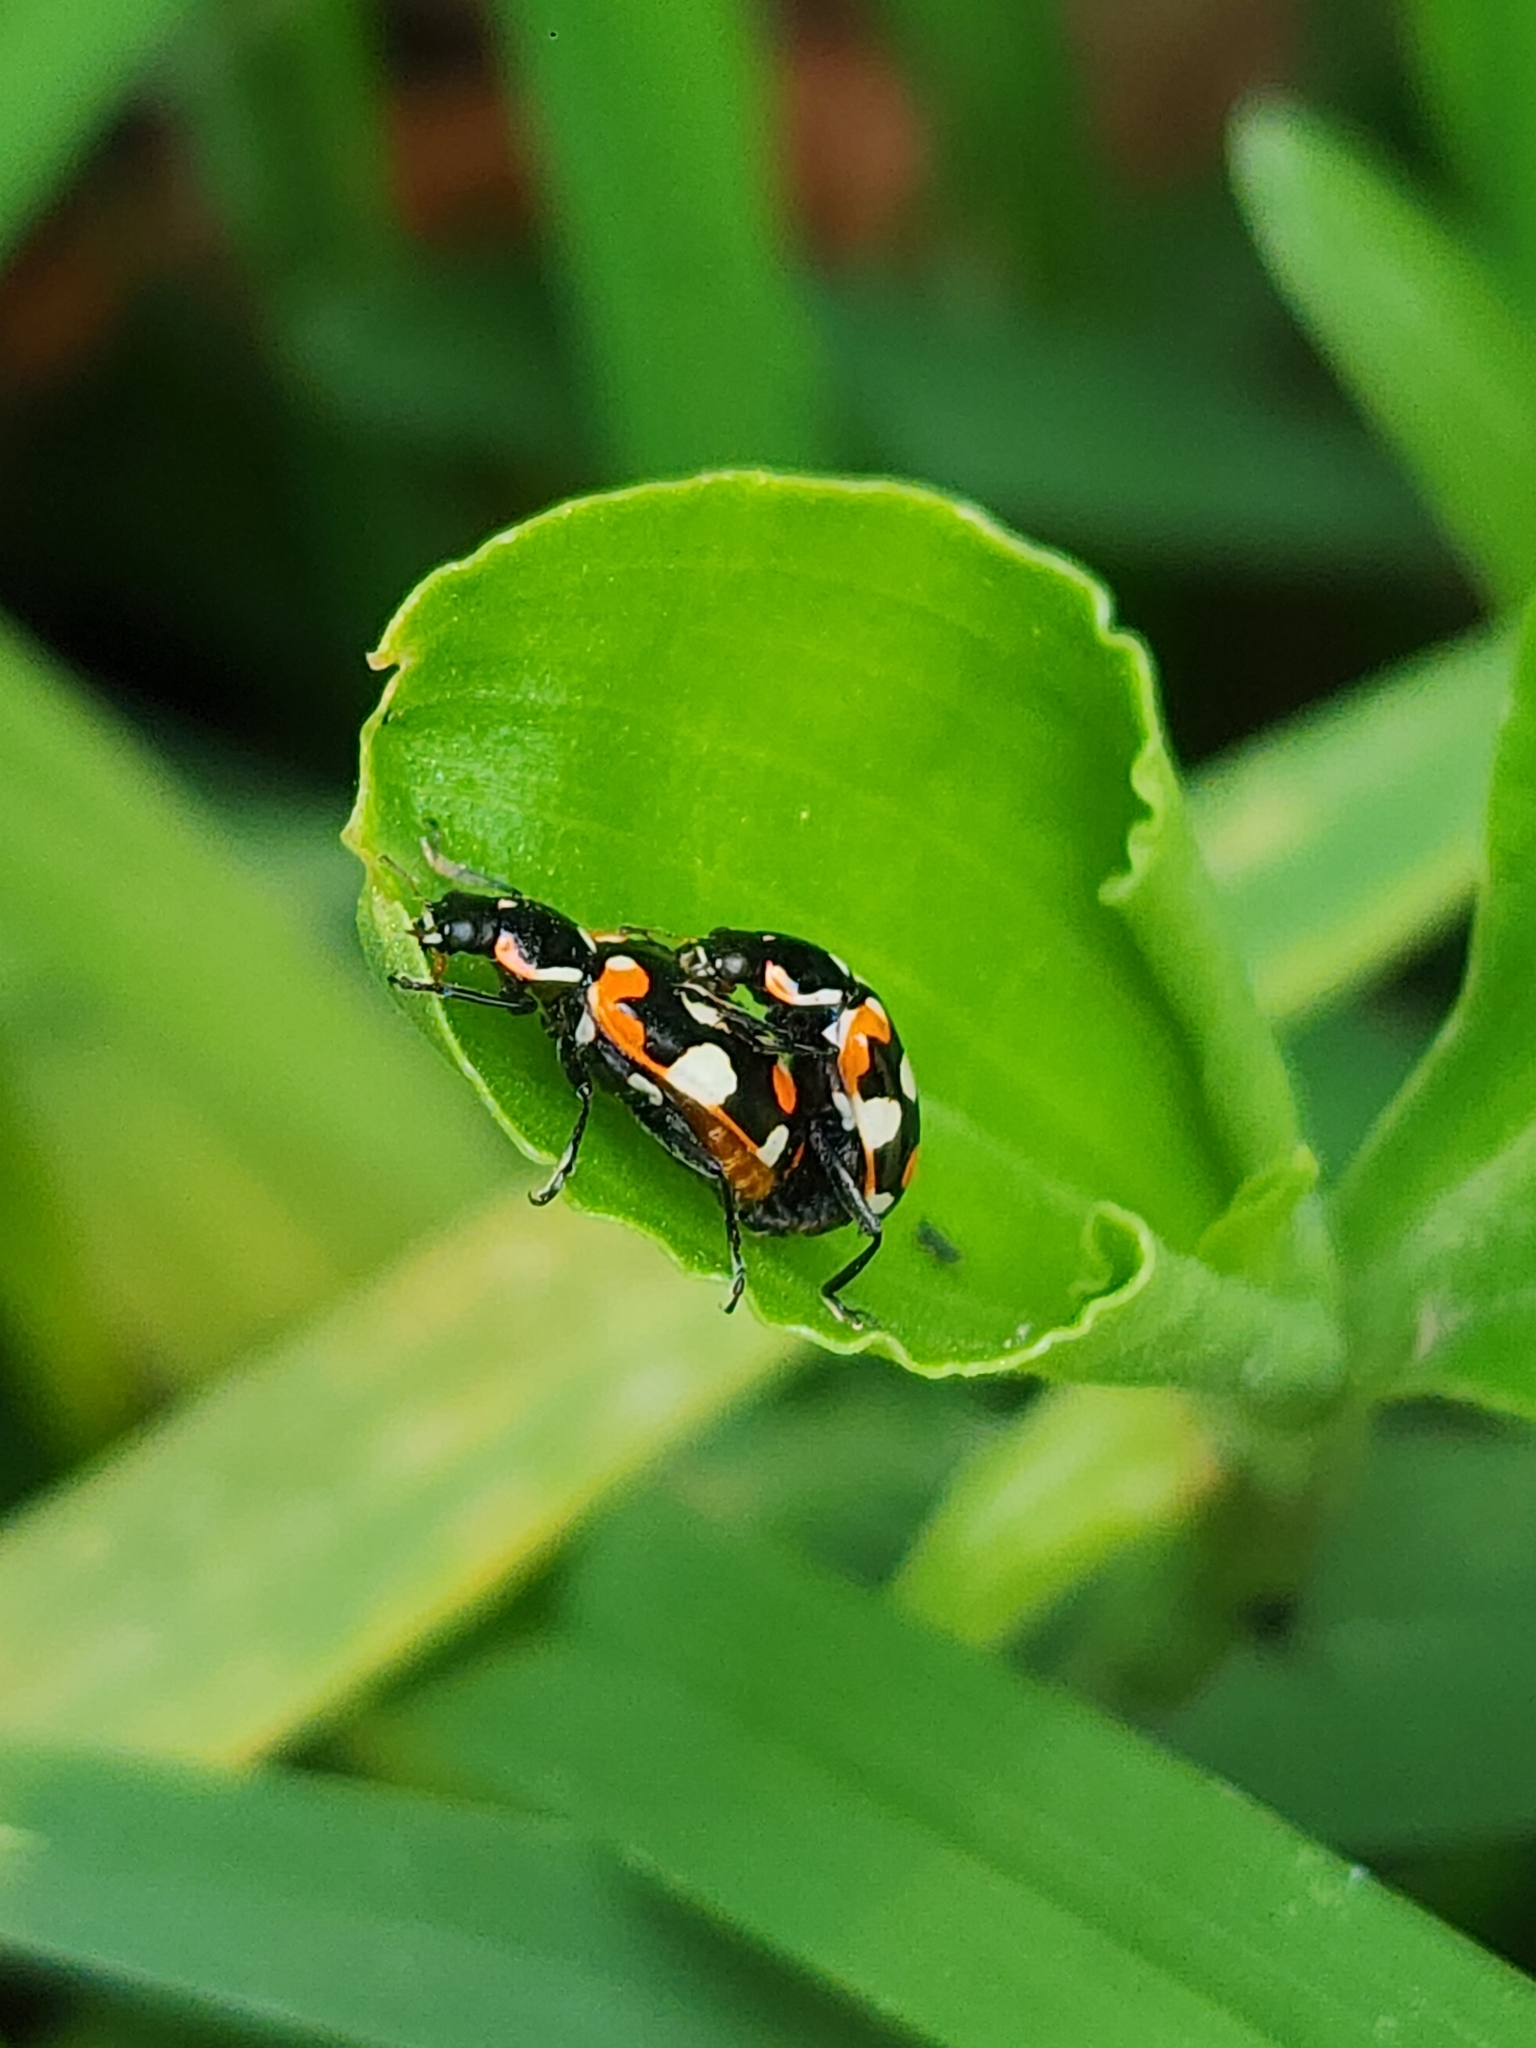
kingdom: Animalia
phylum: Arthropoda
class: Insecta
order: Coleoptera
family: Coccinellidae
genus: Eriopis
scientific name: Eriopis connexa
